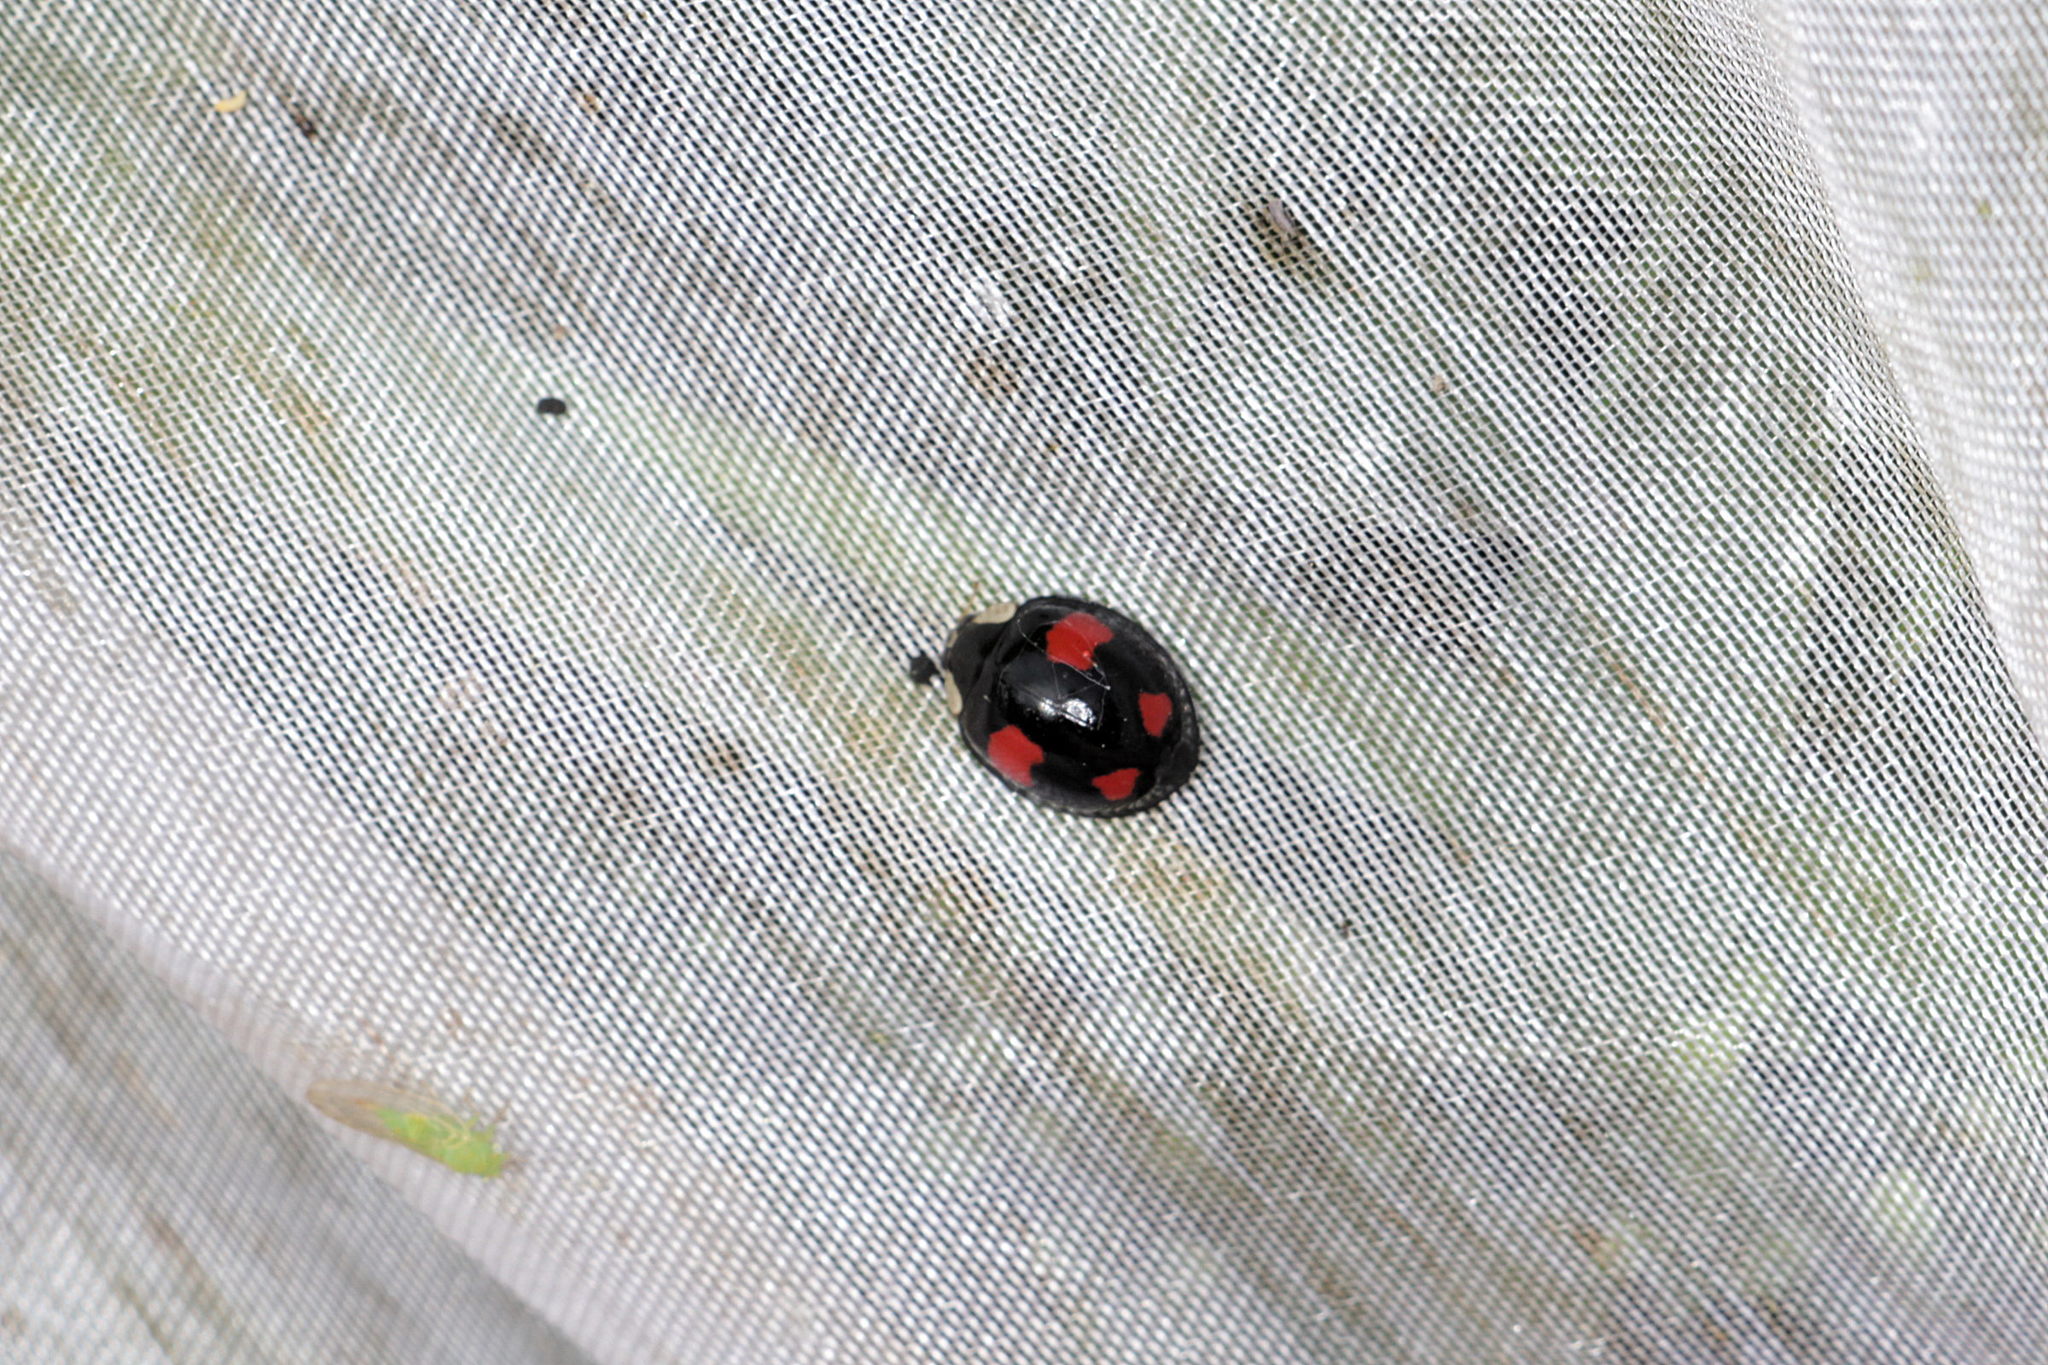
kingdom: Animalia
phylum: Arthropoda
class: Insecta
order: Coleoptera
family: Coccinellidae
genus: Harmonia
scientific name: Harmonia axyridis
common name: Harlequin ladybird
